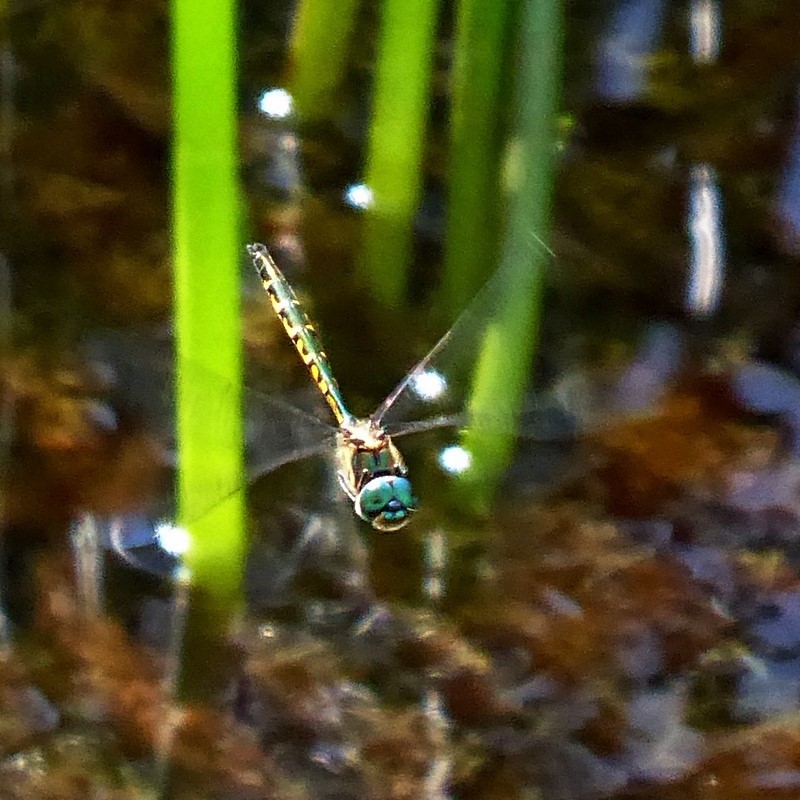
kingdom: Animalia
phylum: Arthropoda
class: Insecta
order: Odonata
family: Corduliidae
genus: Hemicordulia
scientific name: Hemicordulia australiae
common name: Sentry dragonfly
